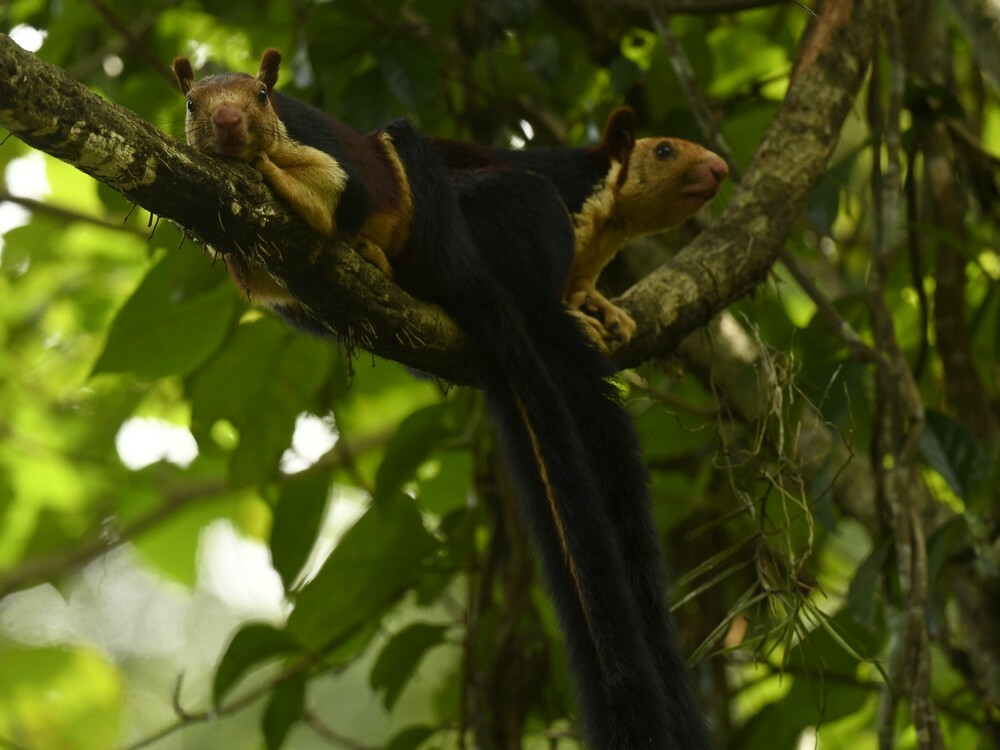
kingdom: Animalia
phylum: Chordata
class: Mammalia
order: Rodentia
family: Sciuridae
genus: Ratufa
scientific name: Ratufa indica
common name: Indian giant squirrel
